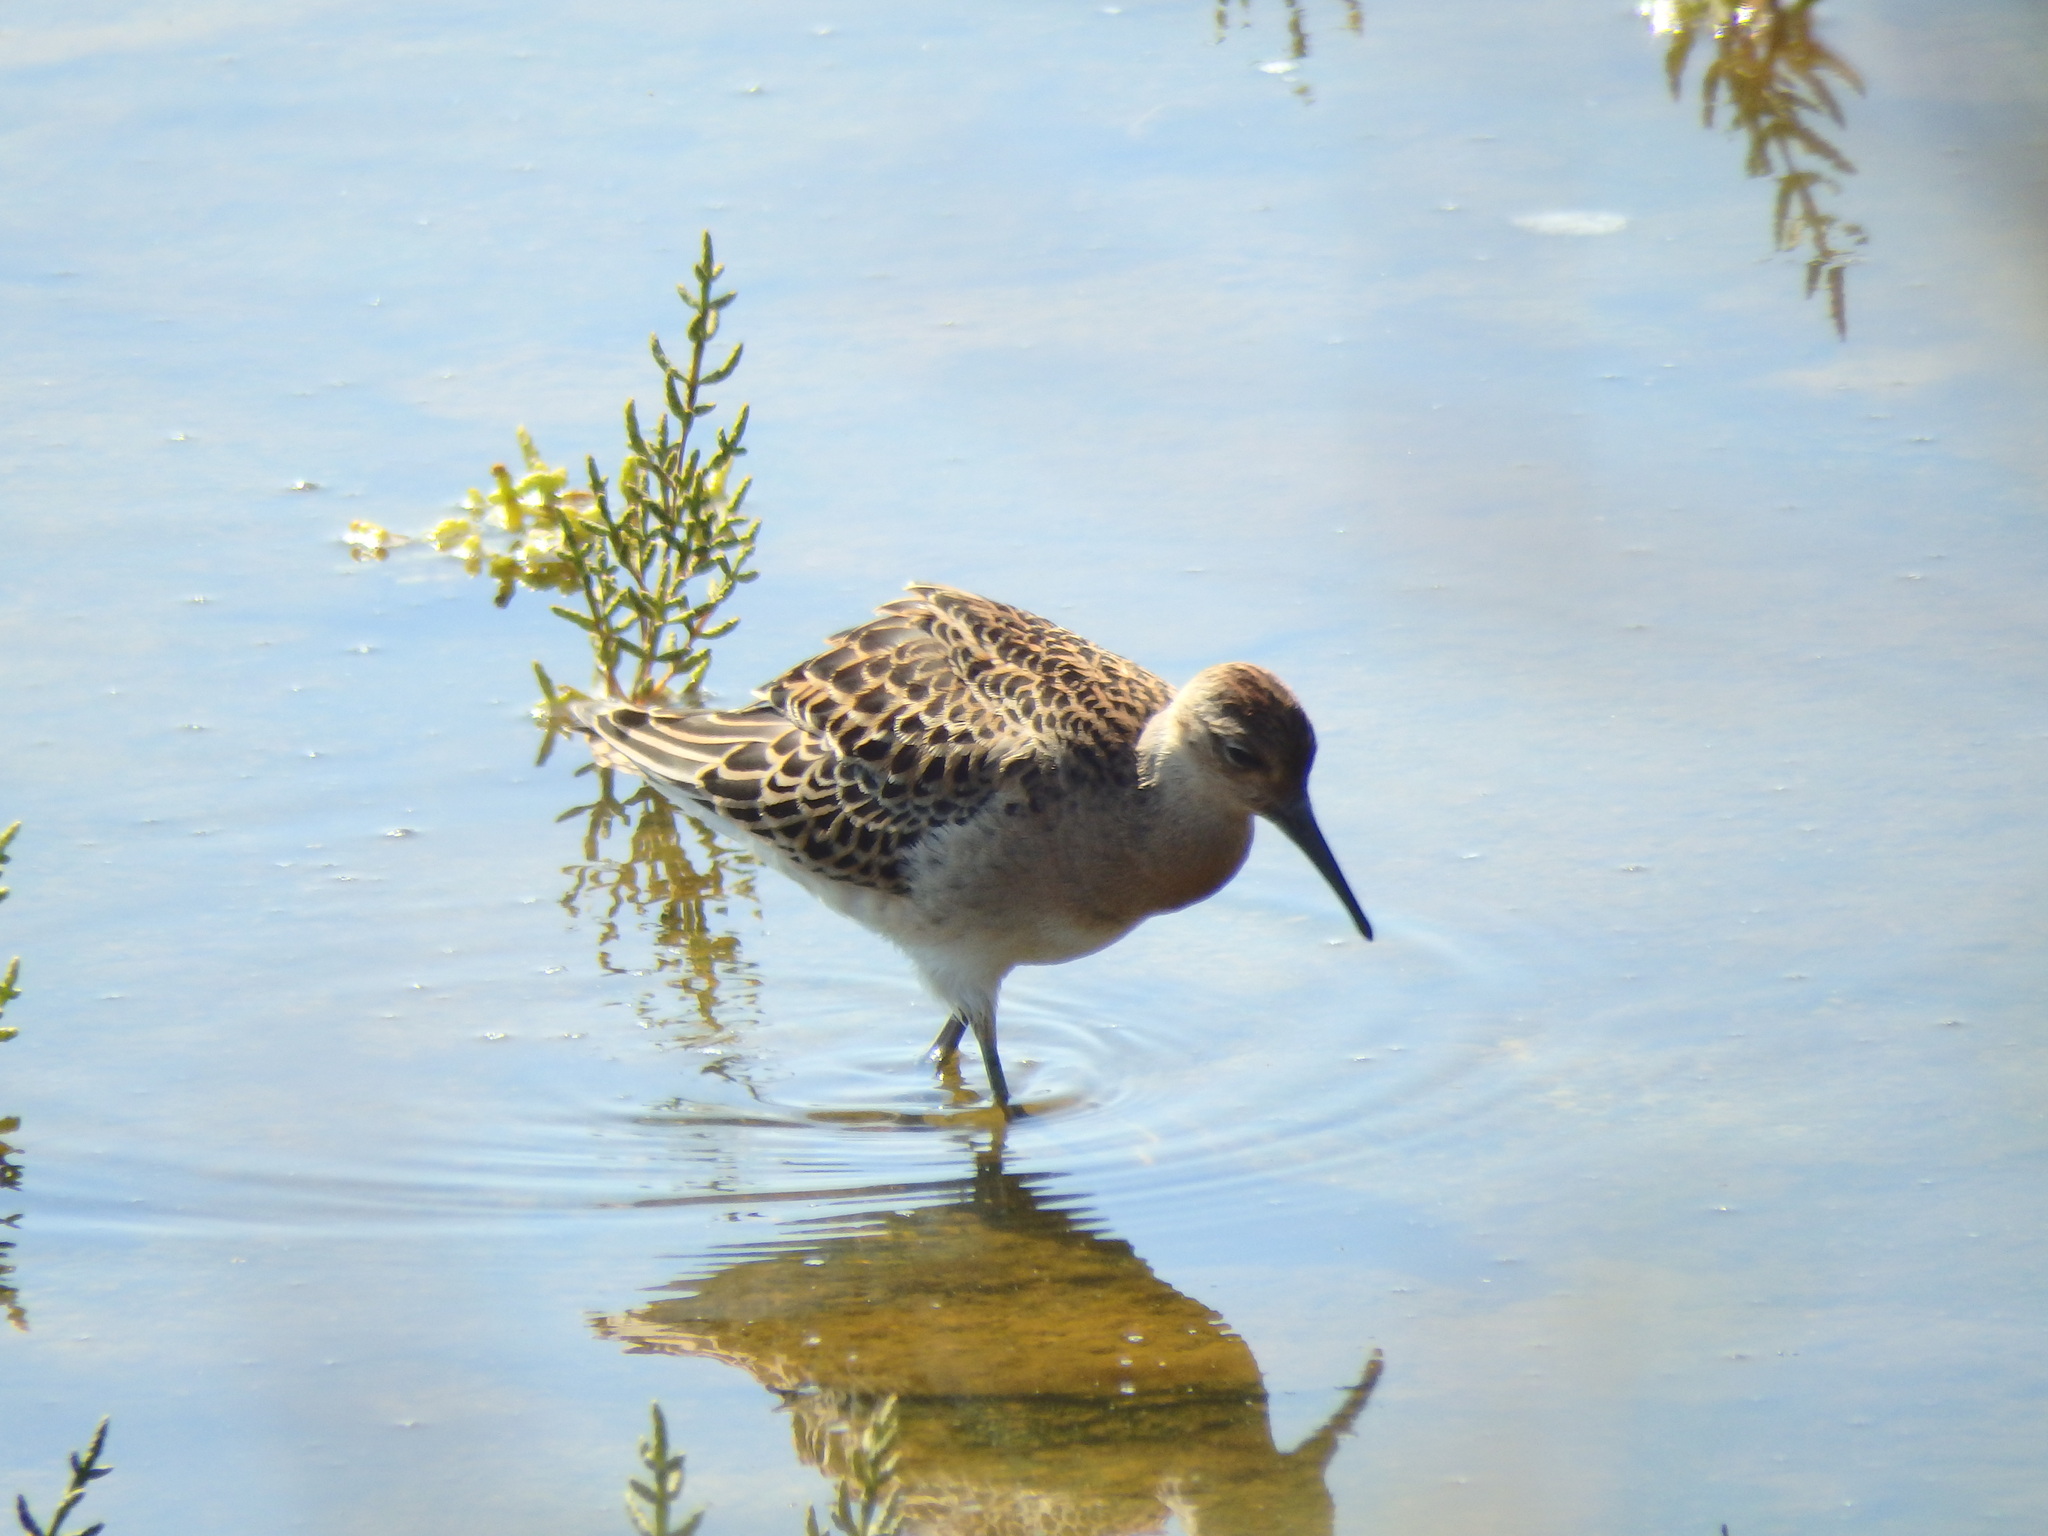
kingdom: Animalia
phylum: Chordata
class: Aves
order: Charadriiformes
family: Scolopacidae
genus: Calidris
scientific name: Calidris pugnax
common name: Ruff
